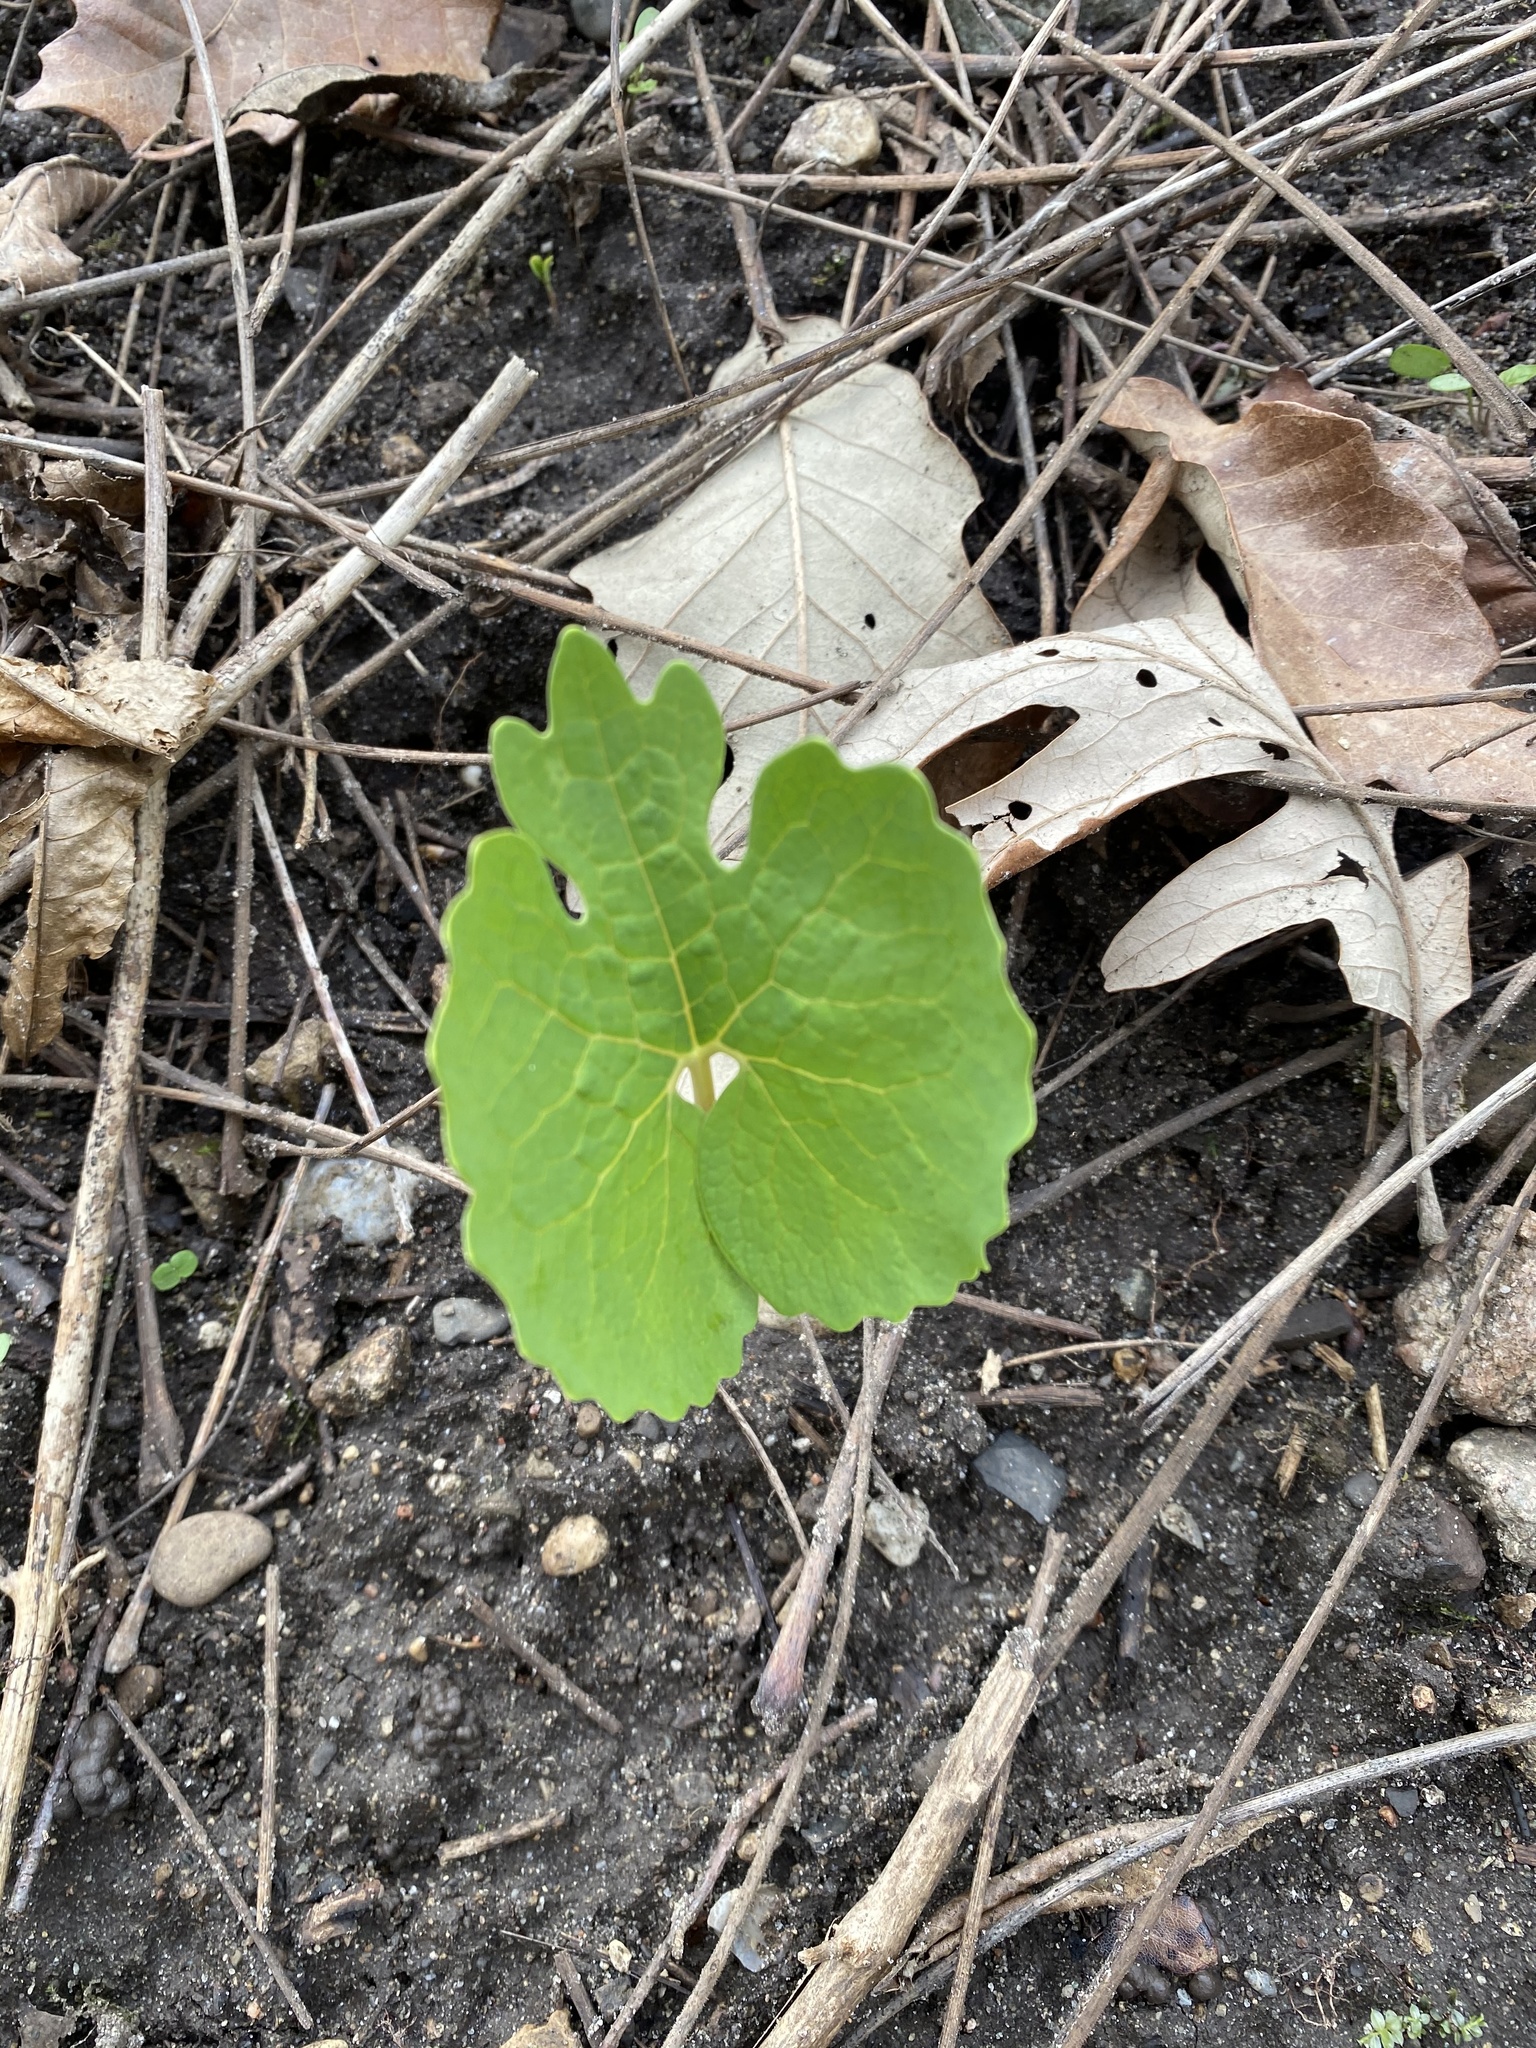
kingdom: Plantae
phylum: Tracheophyta
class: Magnoliopsida
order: Ranunculales
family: Papaveraceae
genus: Sanguinaria
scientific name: Sanguinaria canadensis
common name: Bloodroot
